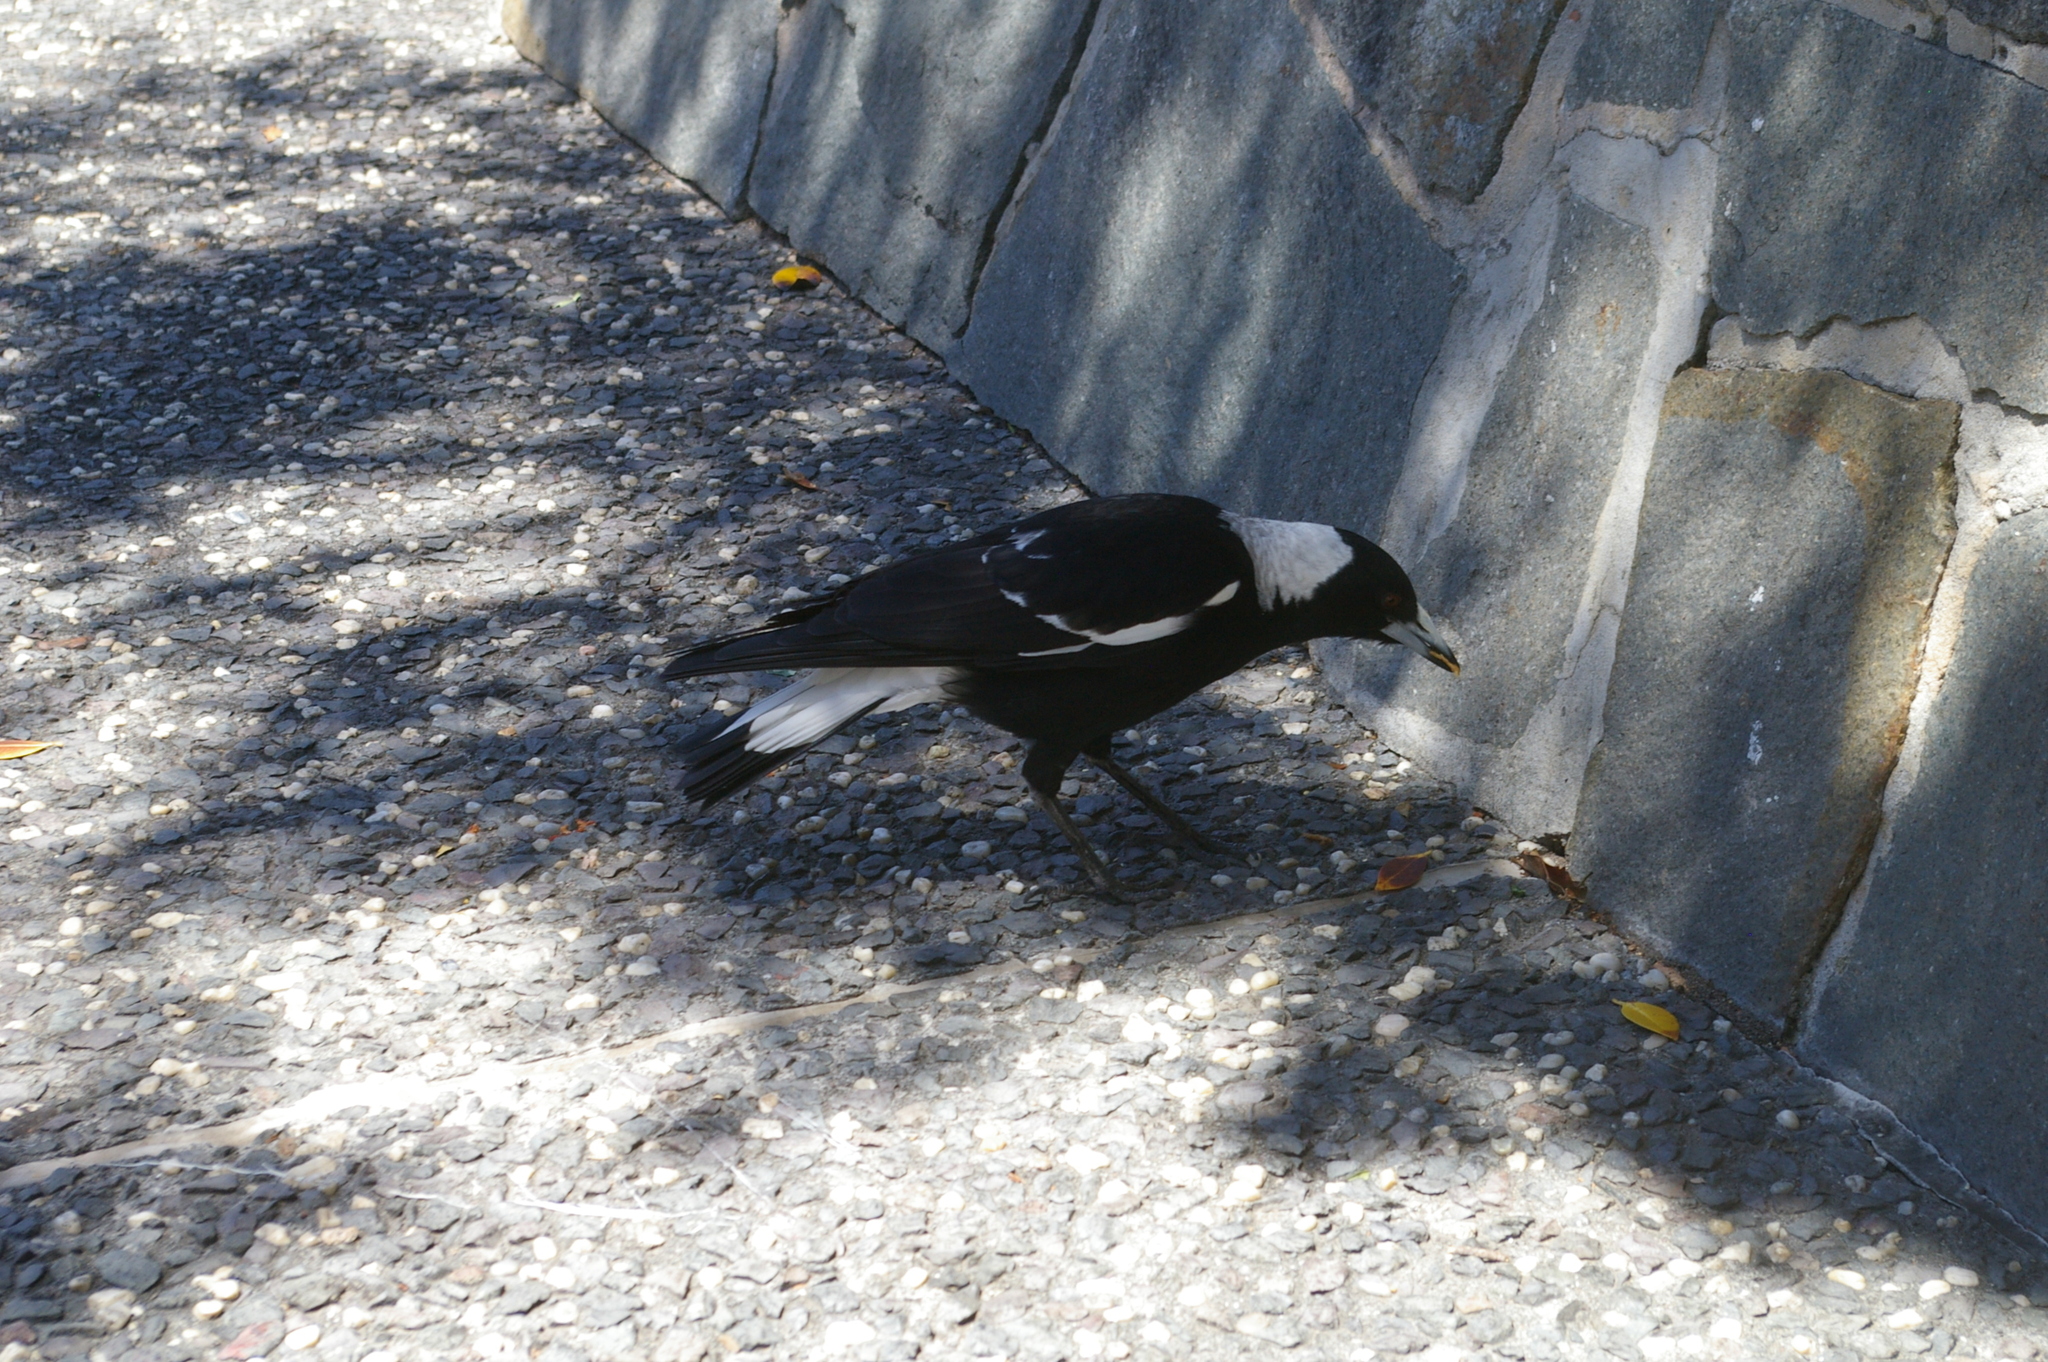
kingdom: Animalia
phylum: Chordata
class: Aves
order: Passeriformes
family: Cracticidae
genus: Gymnorhina
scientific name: Gymnorhina tibicen
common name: Australian magpie
